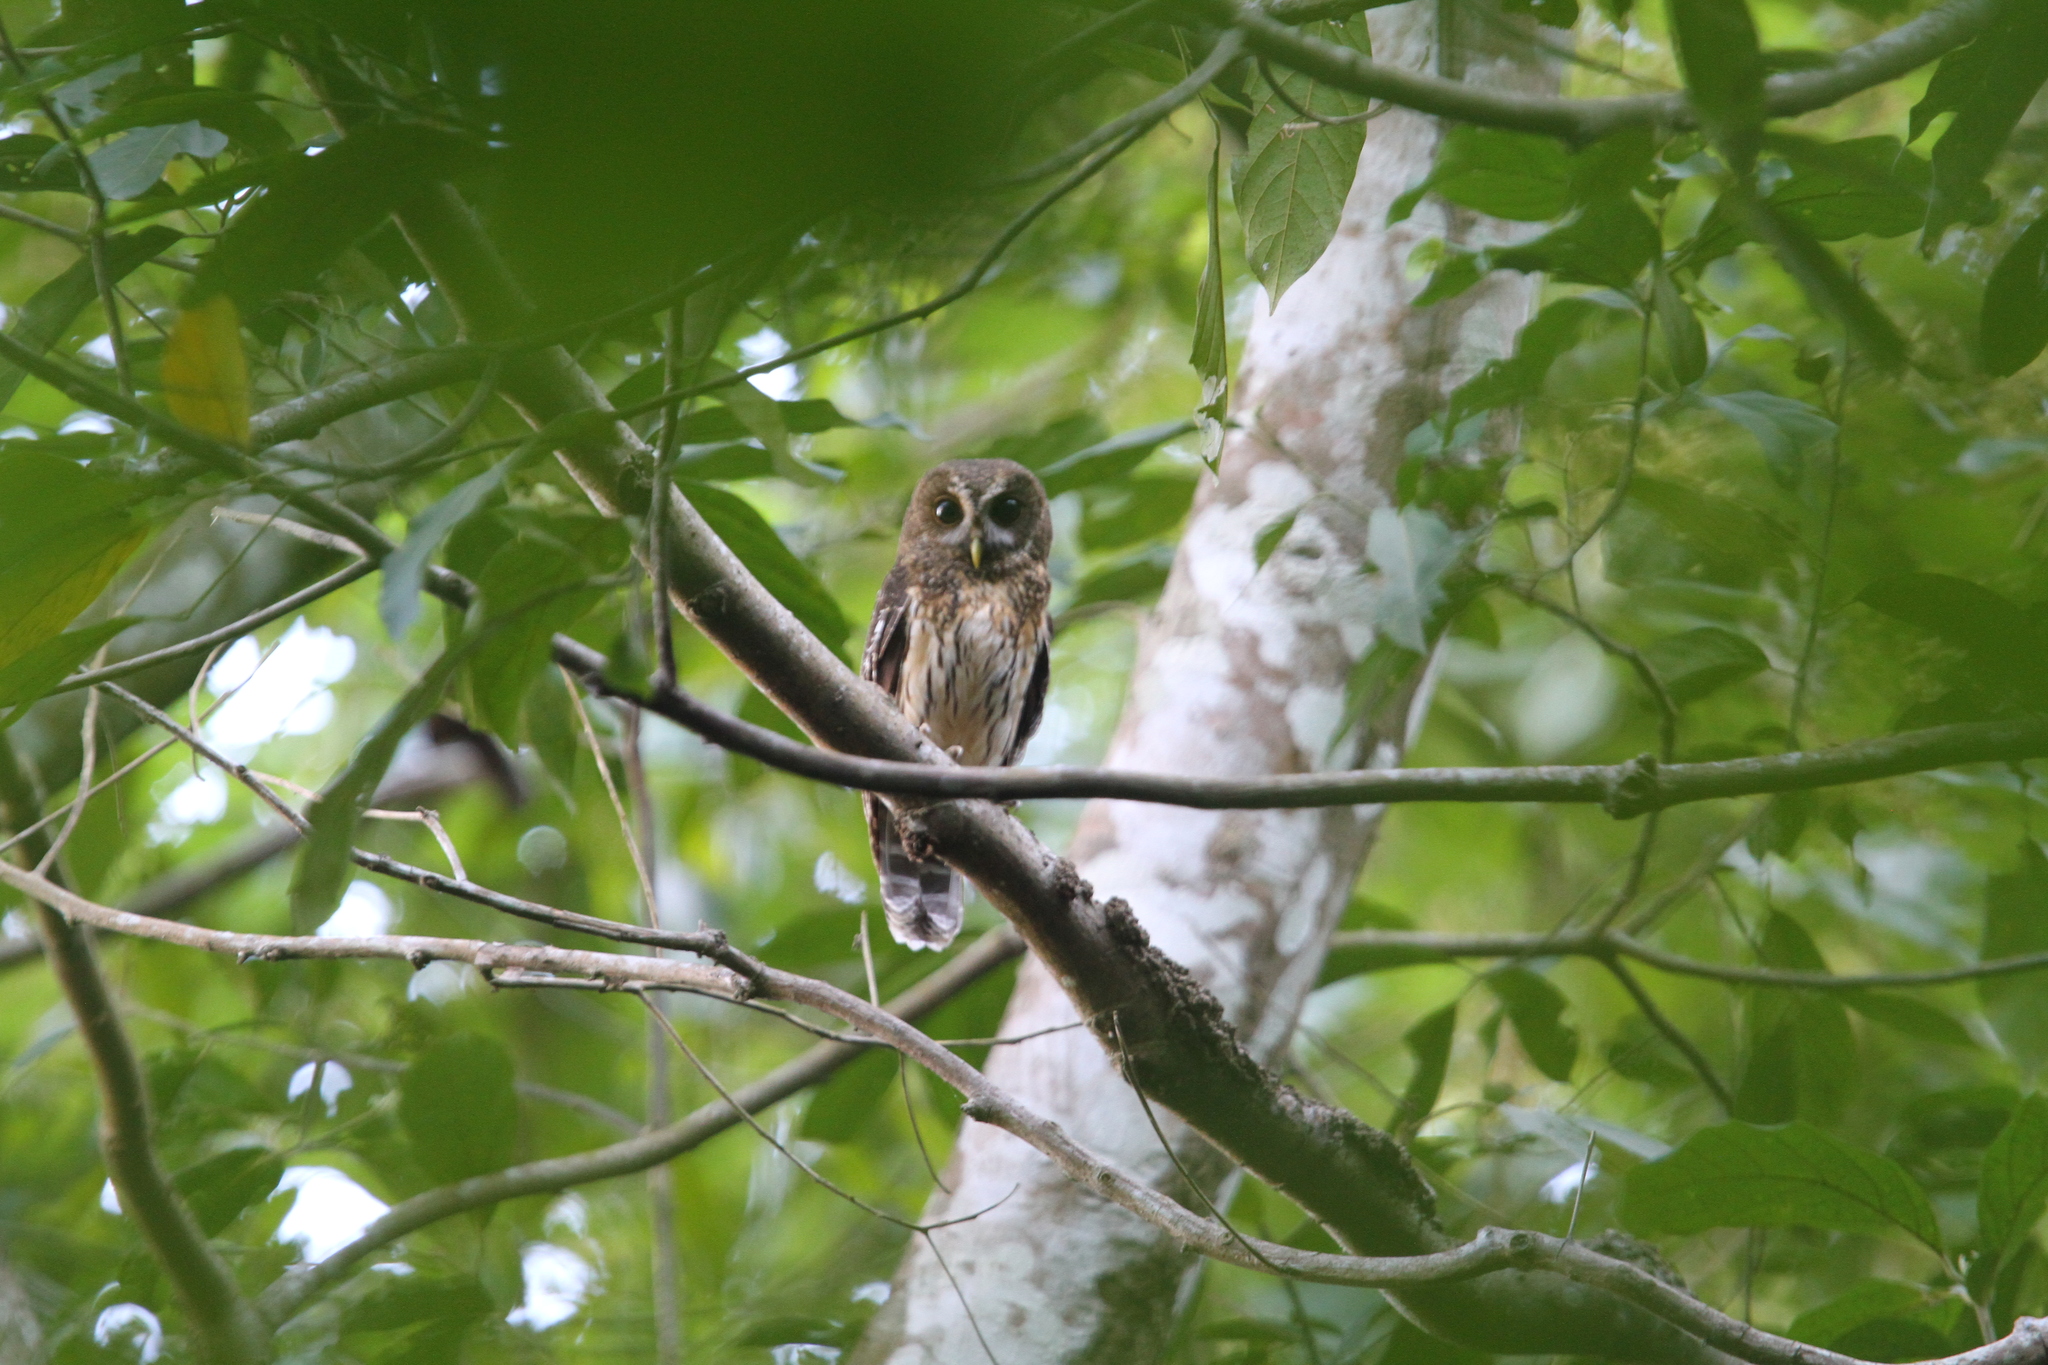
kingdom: Animalia
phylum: Chordata
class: Aves
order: Strigiformes
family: Strigidae
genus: Strix
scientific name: Strix virgata
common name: Mottled owl
